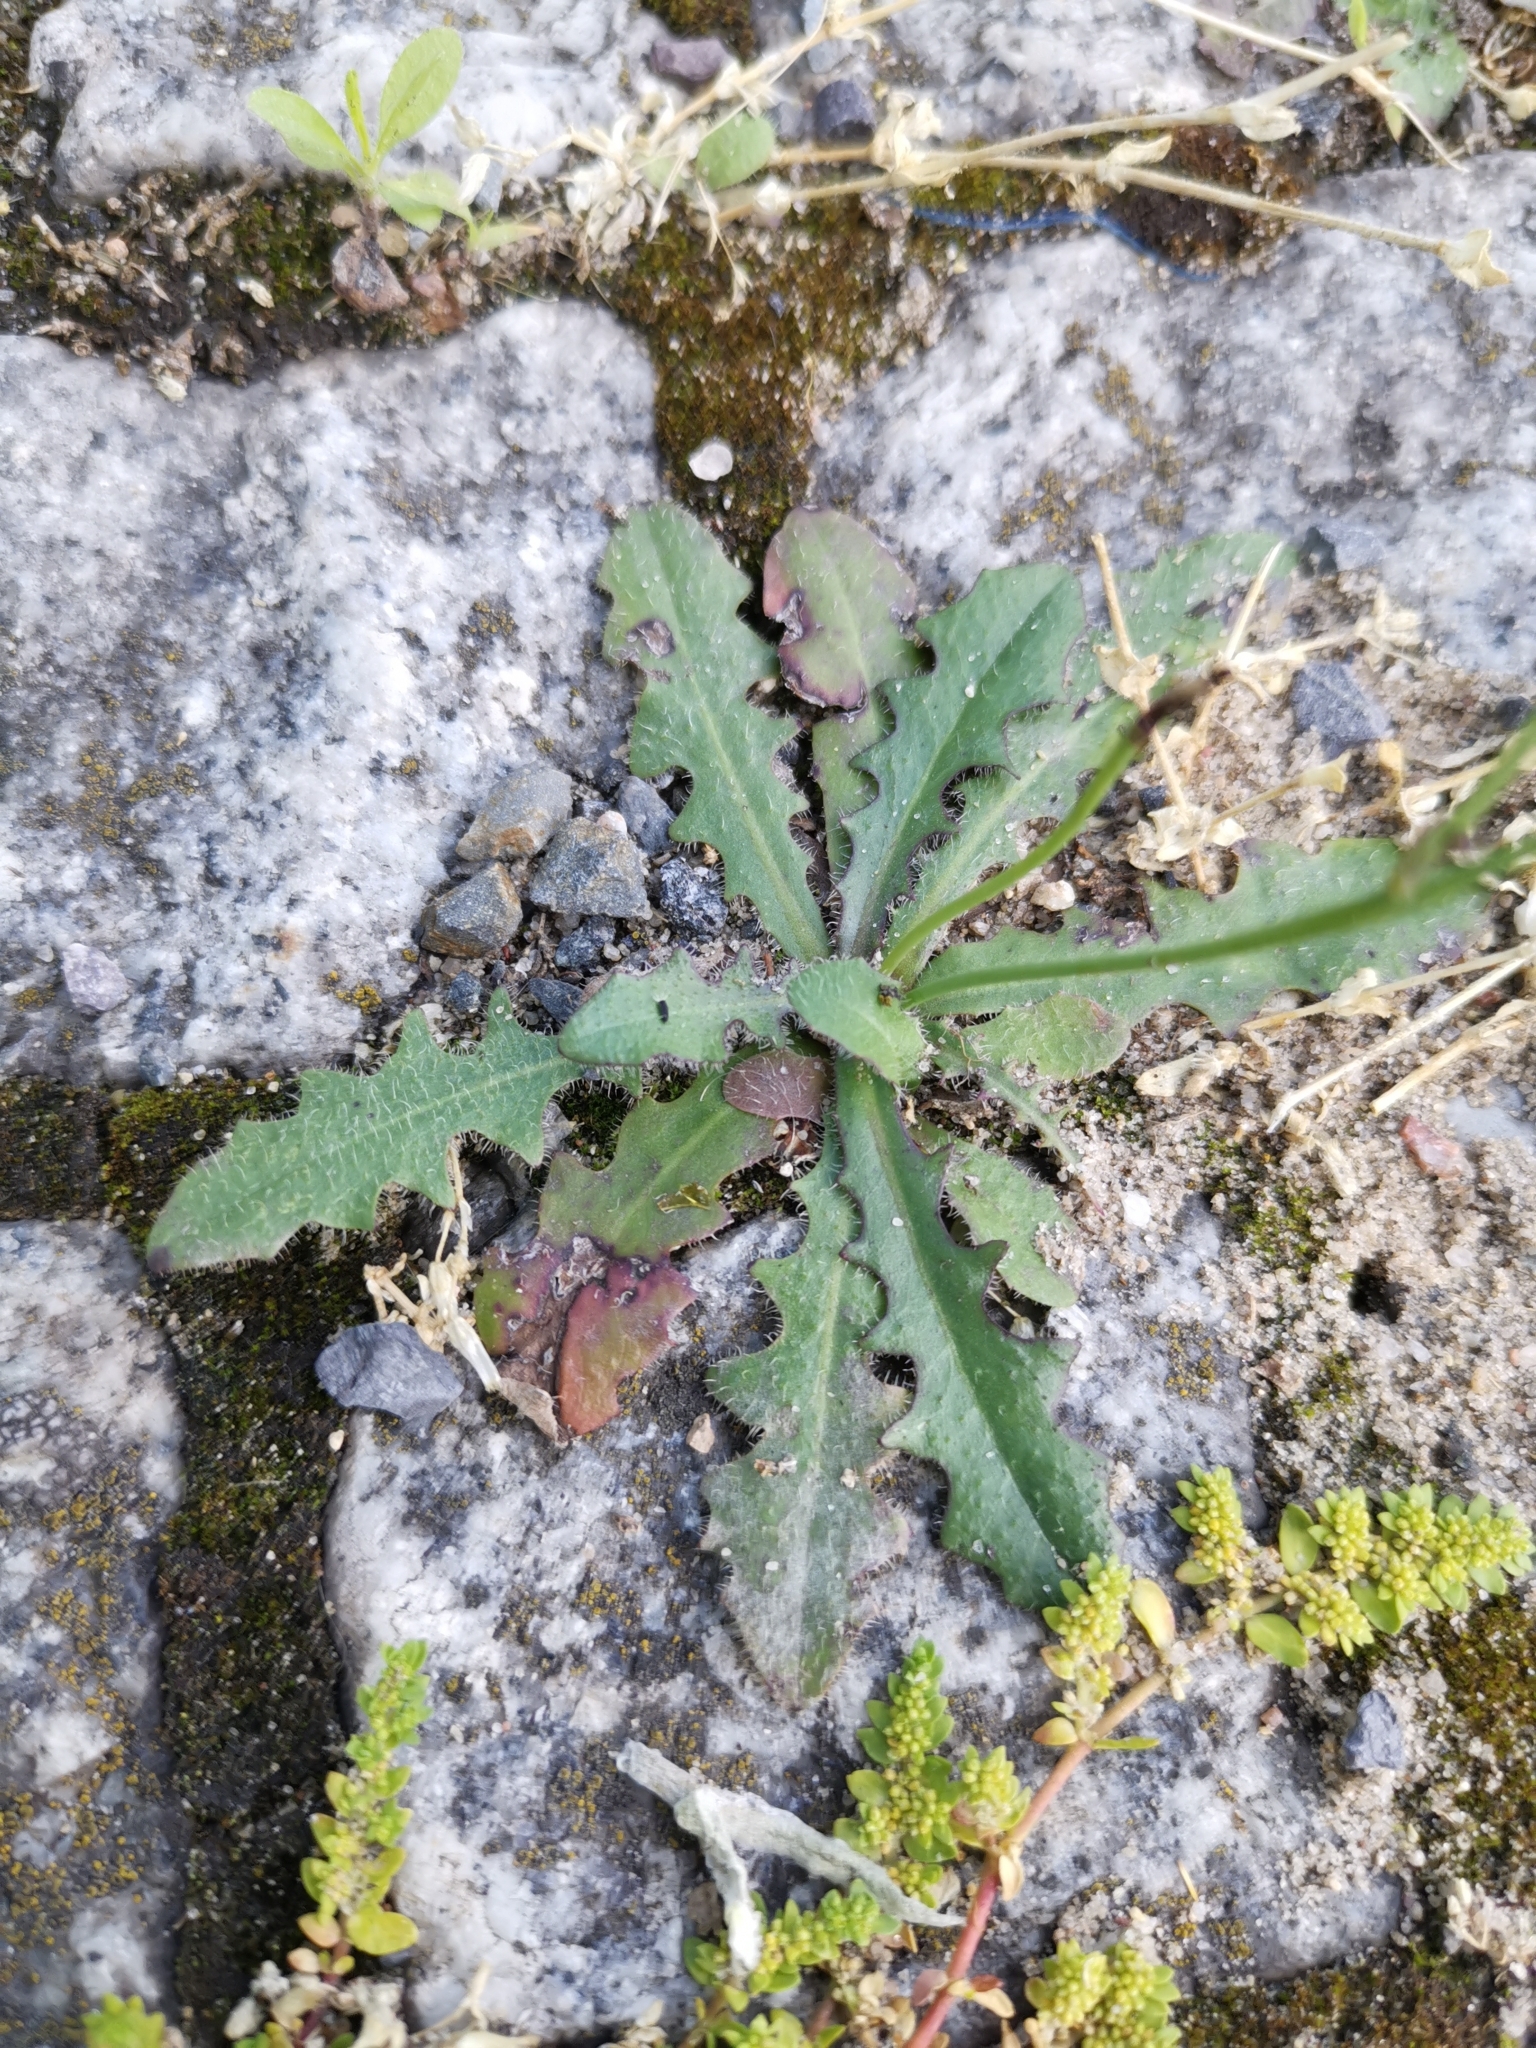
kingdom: Plantae
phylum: Tracheophyta
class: Magnoliopsida
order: Asterales
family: Asteraceae
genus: Hypochaeris
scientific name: Hypochaeris radicata
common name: Flatweed
